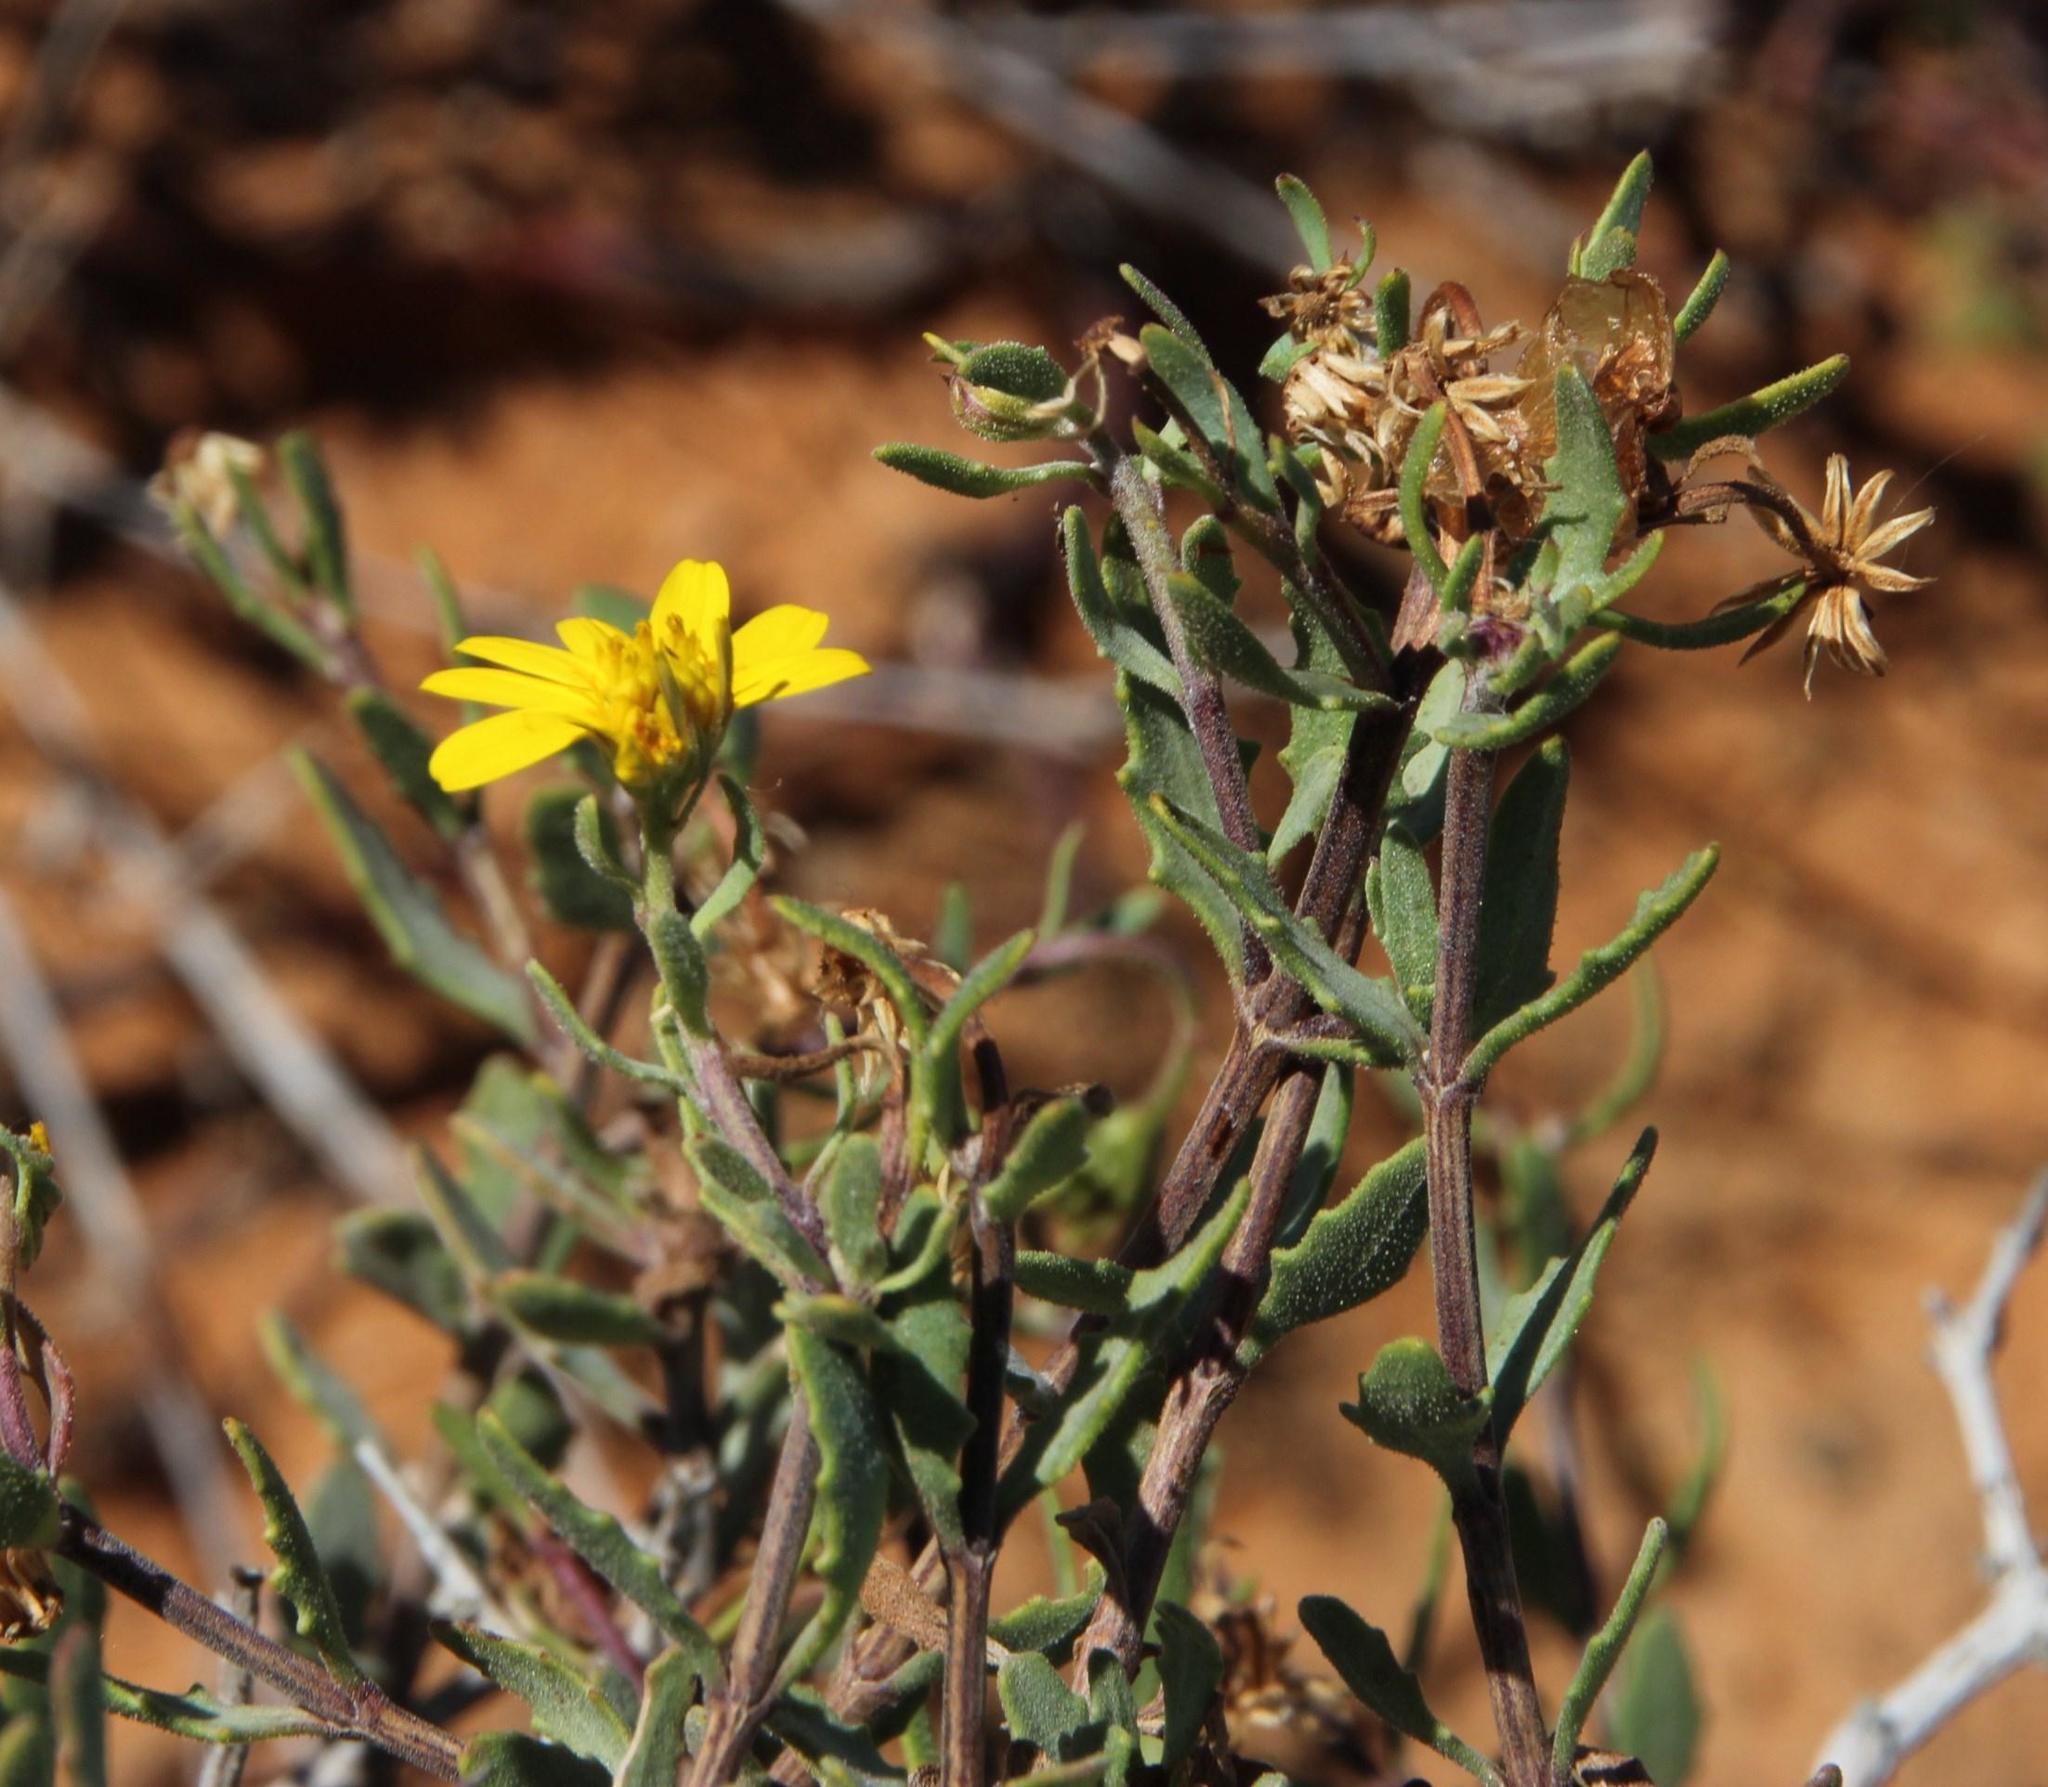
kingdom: Plantae
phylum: Tracheophyta
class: Magnoliopsida
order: Asterales
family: Asteraceae
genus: Osteospermum
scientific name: Osteospermum sinuatum
